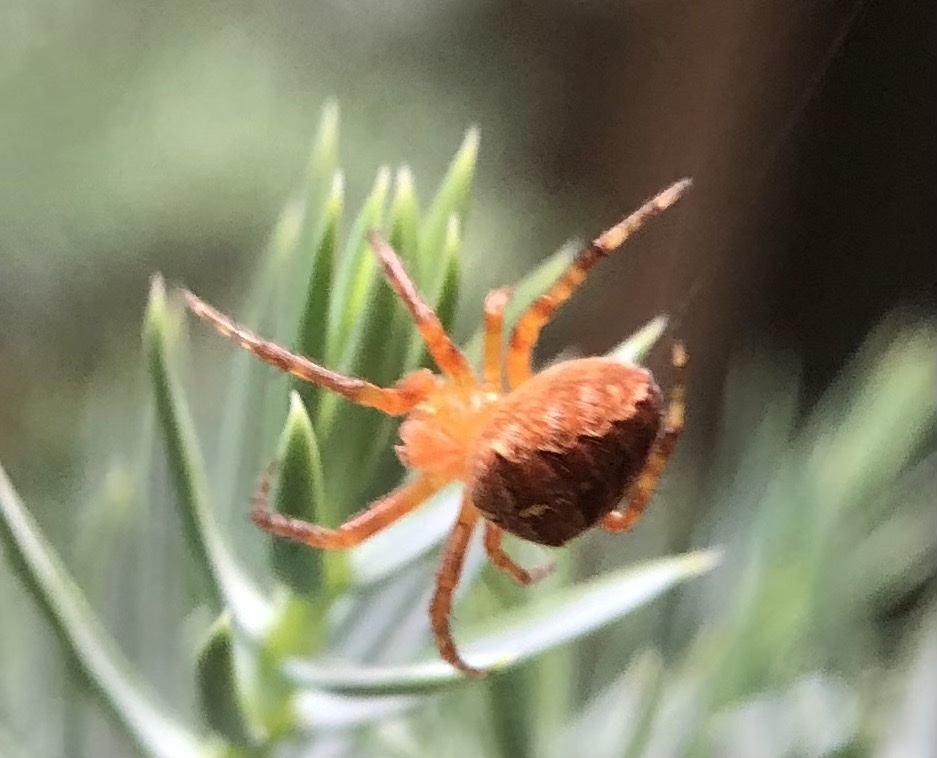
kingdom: Animalia
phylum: Arthropoda
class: Arachnida
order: Araneae
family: Araneidae
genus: Araneus
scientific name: Araneus diadematus
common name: Cross orbweaver
